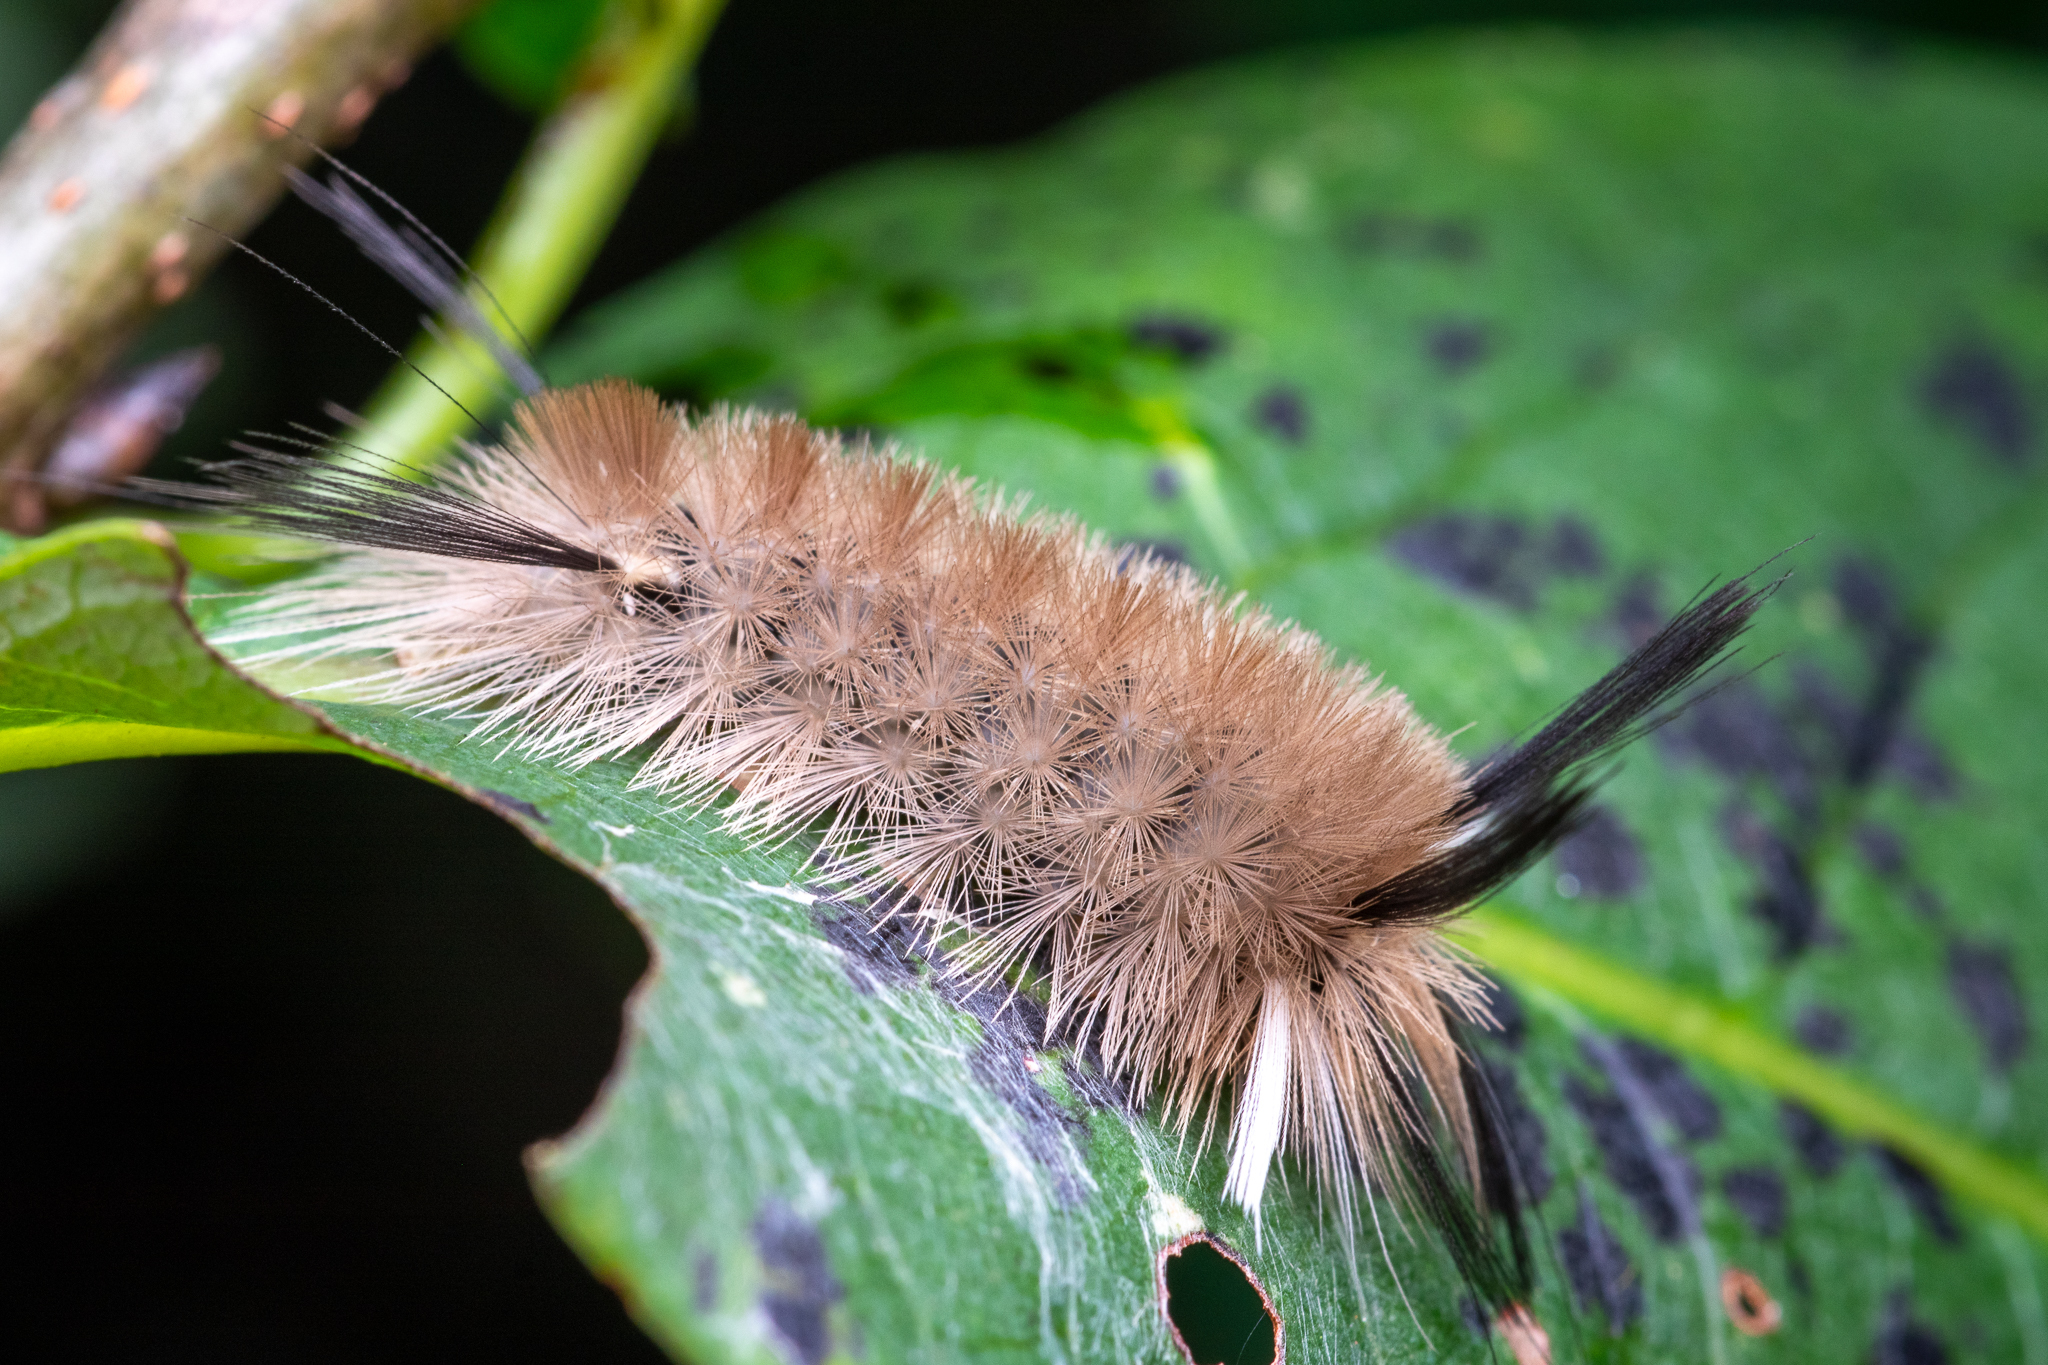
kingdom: Animalia
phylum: Arthropoda
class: Insecta
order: Lepidoptera
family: Erebidae
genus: Halysidota
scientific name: Halysidota tessellaris
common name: Banded tussock moth
